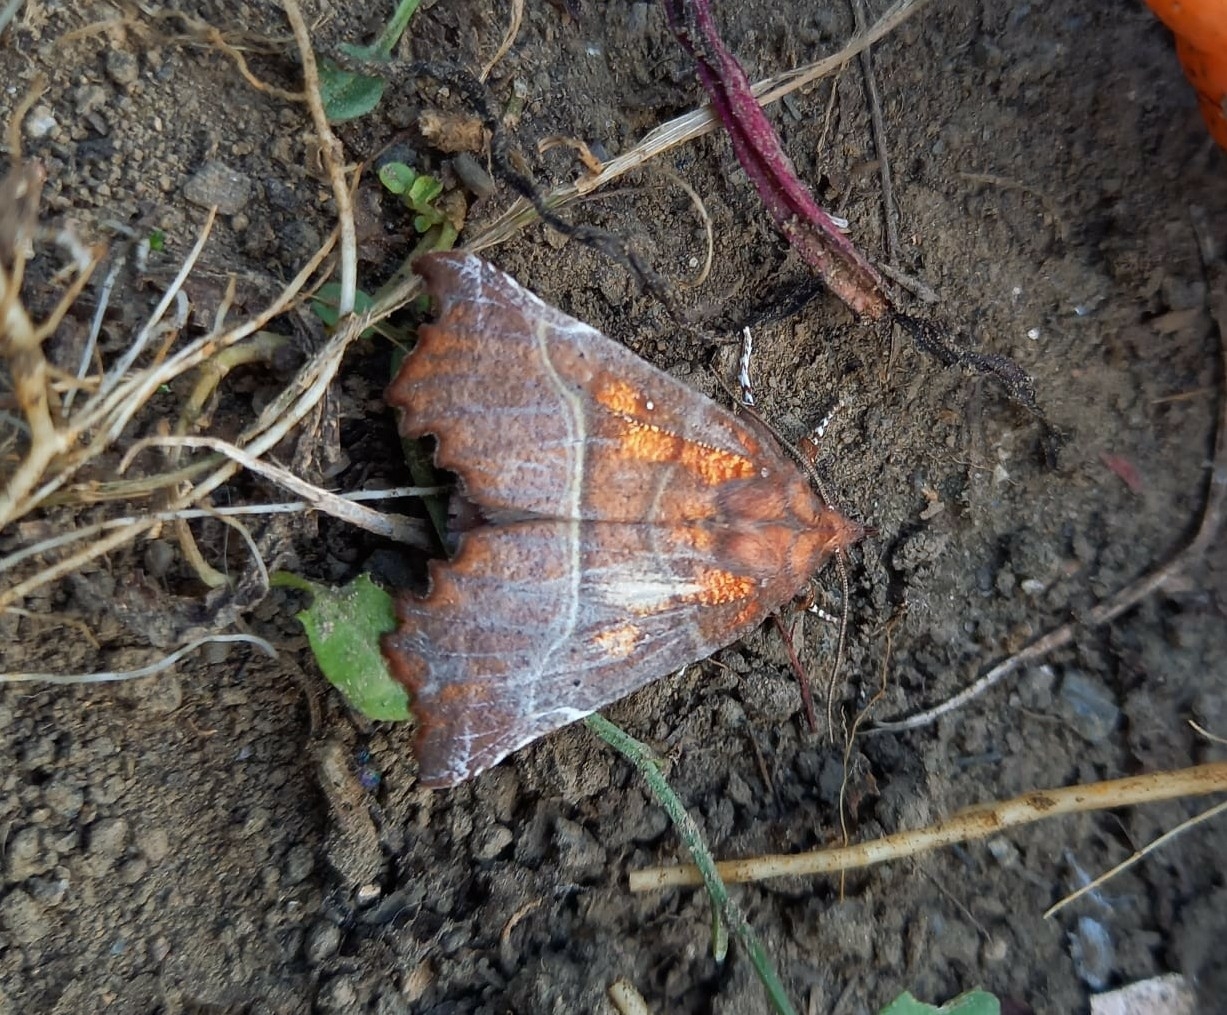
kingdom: Animalia
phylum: Arthropoda
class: Insecta
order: Lepidoptera
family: Erebidae
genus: Scoliopteryx
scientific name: Scoliopteryx libatrix
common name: Herald
